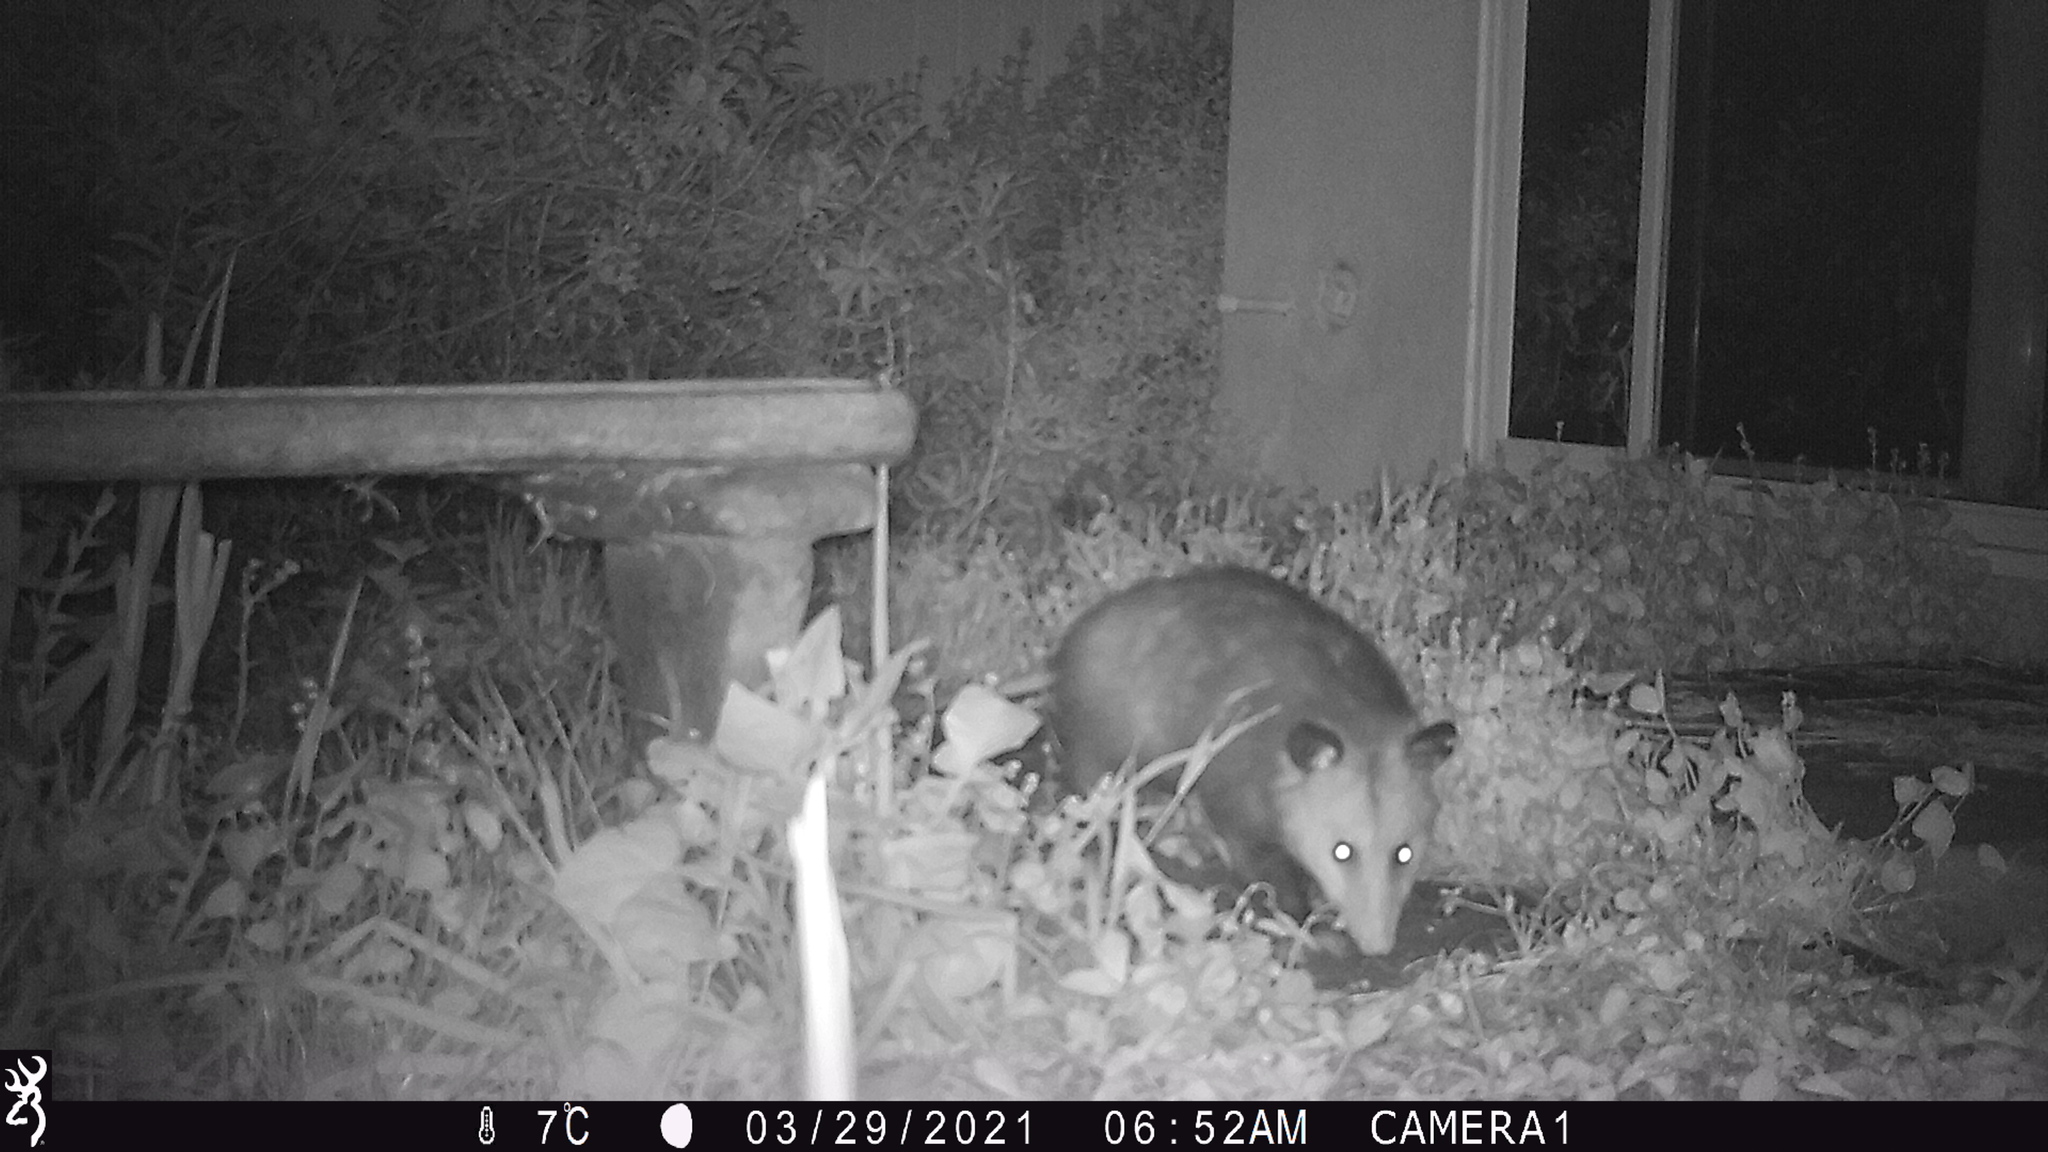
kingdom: Animalia
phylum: Chordata
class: Mammalia
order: Didelphimorphia
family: Didelphidae
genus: Didelphis
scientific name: Didelphis virginiana
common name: Virginia opossum
